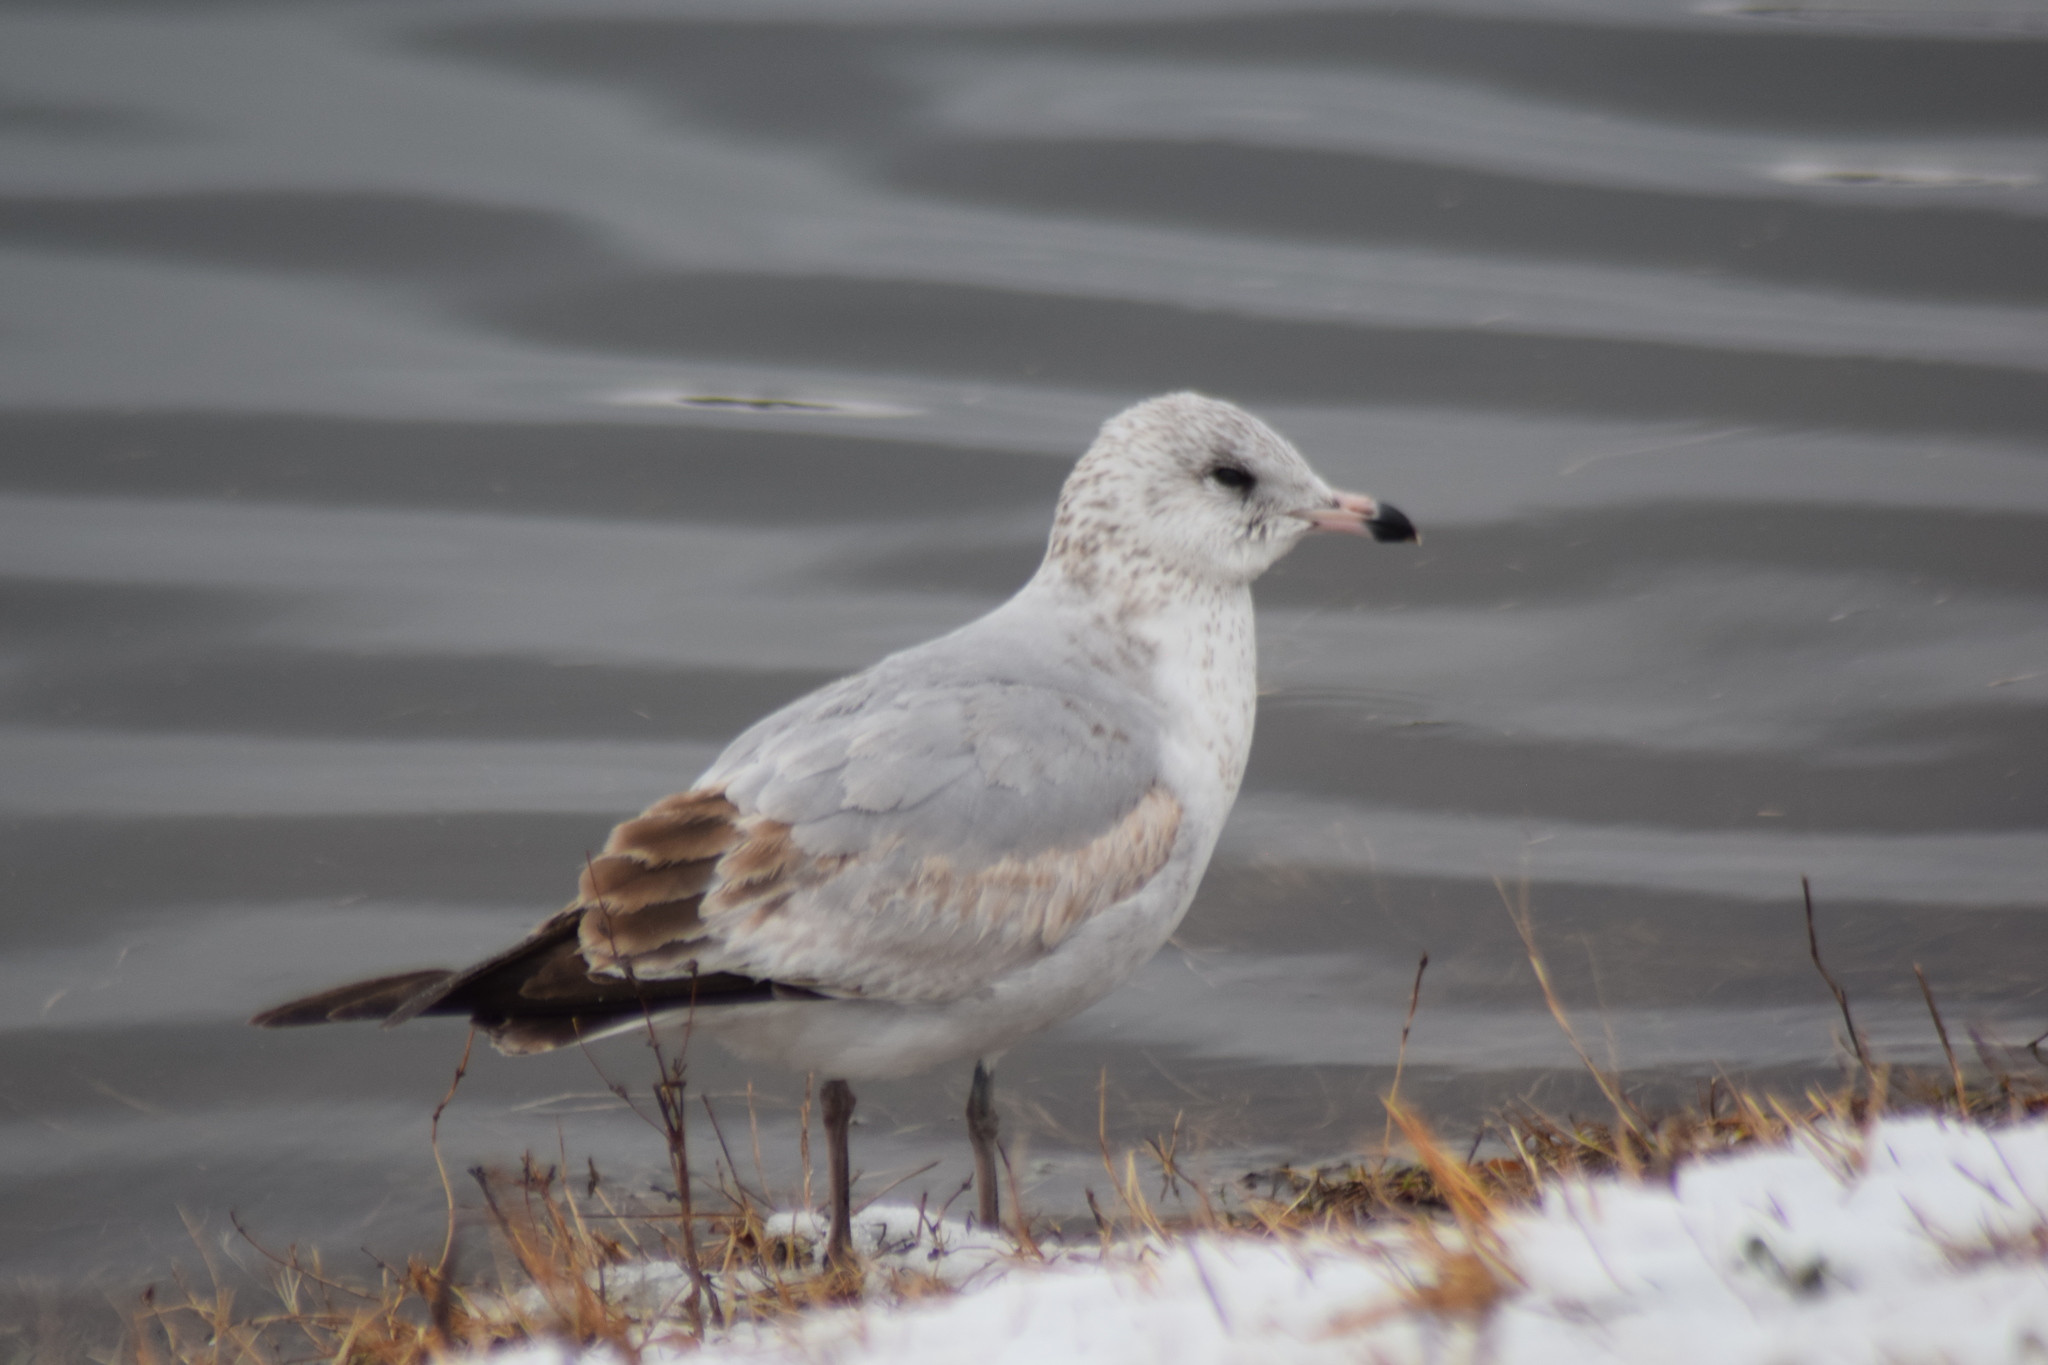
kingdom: Animalia
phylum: Chordata
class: Aves
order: Charadriiformes
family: Laridae
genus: Larus
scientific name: Larus delawarensis
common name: Ring-billed gull
